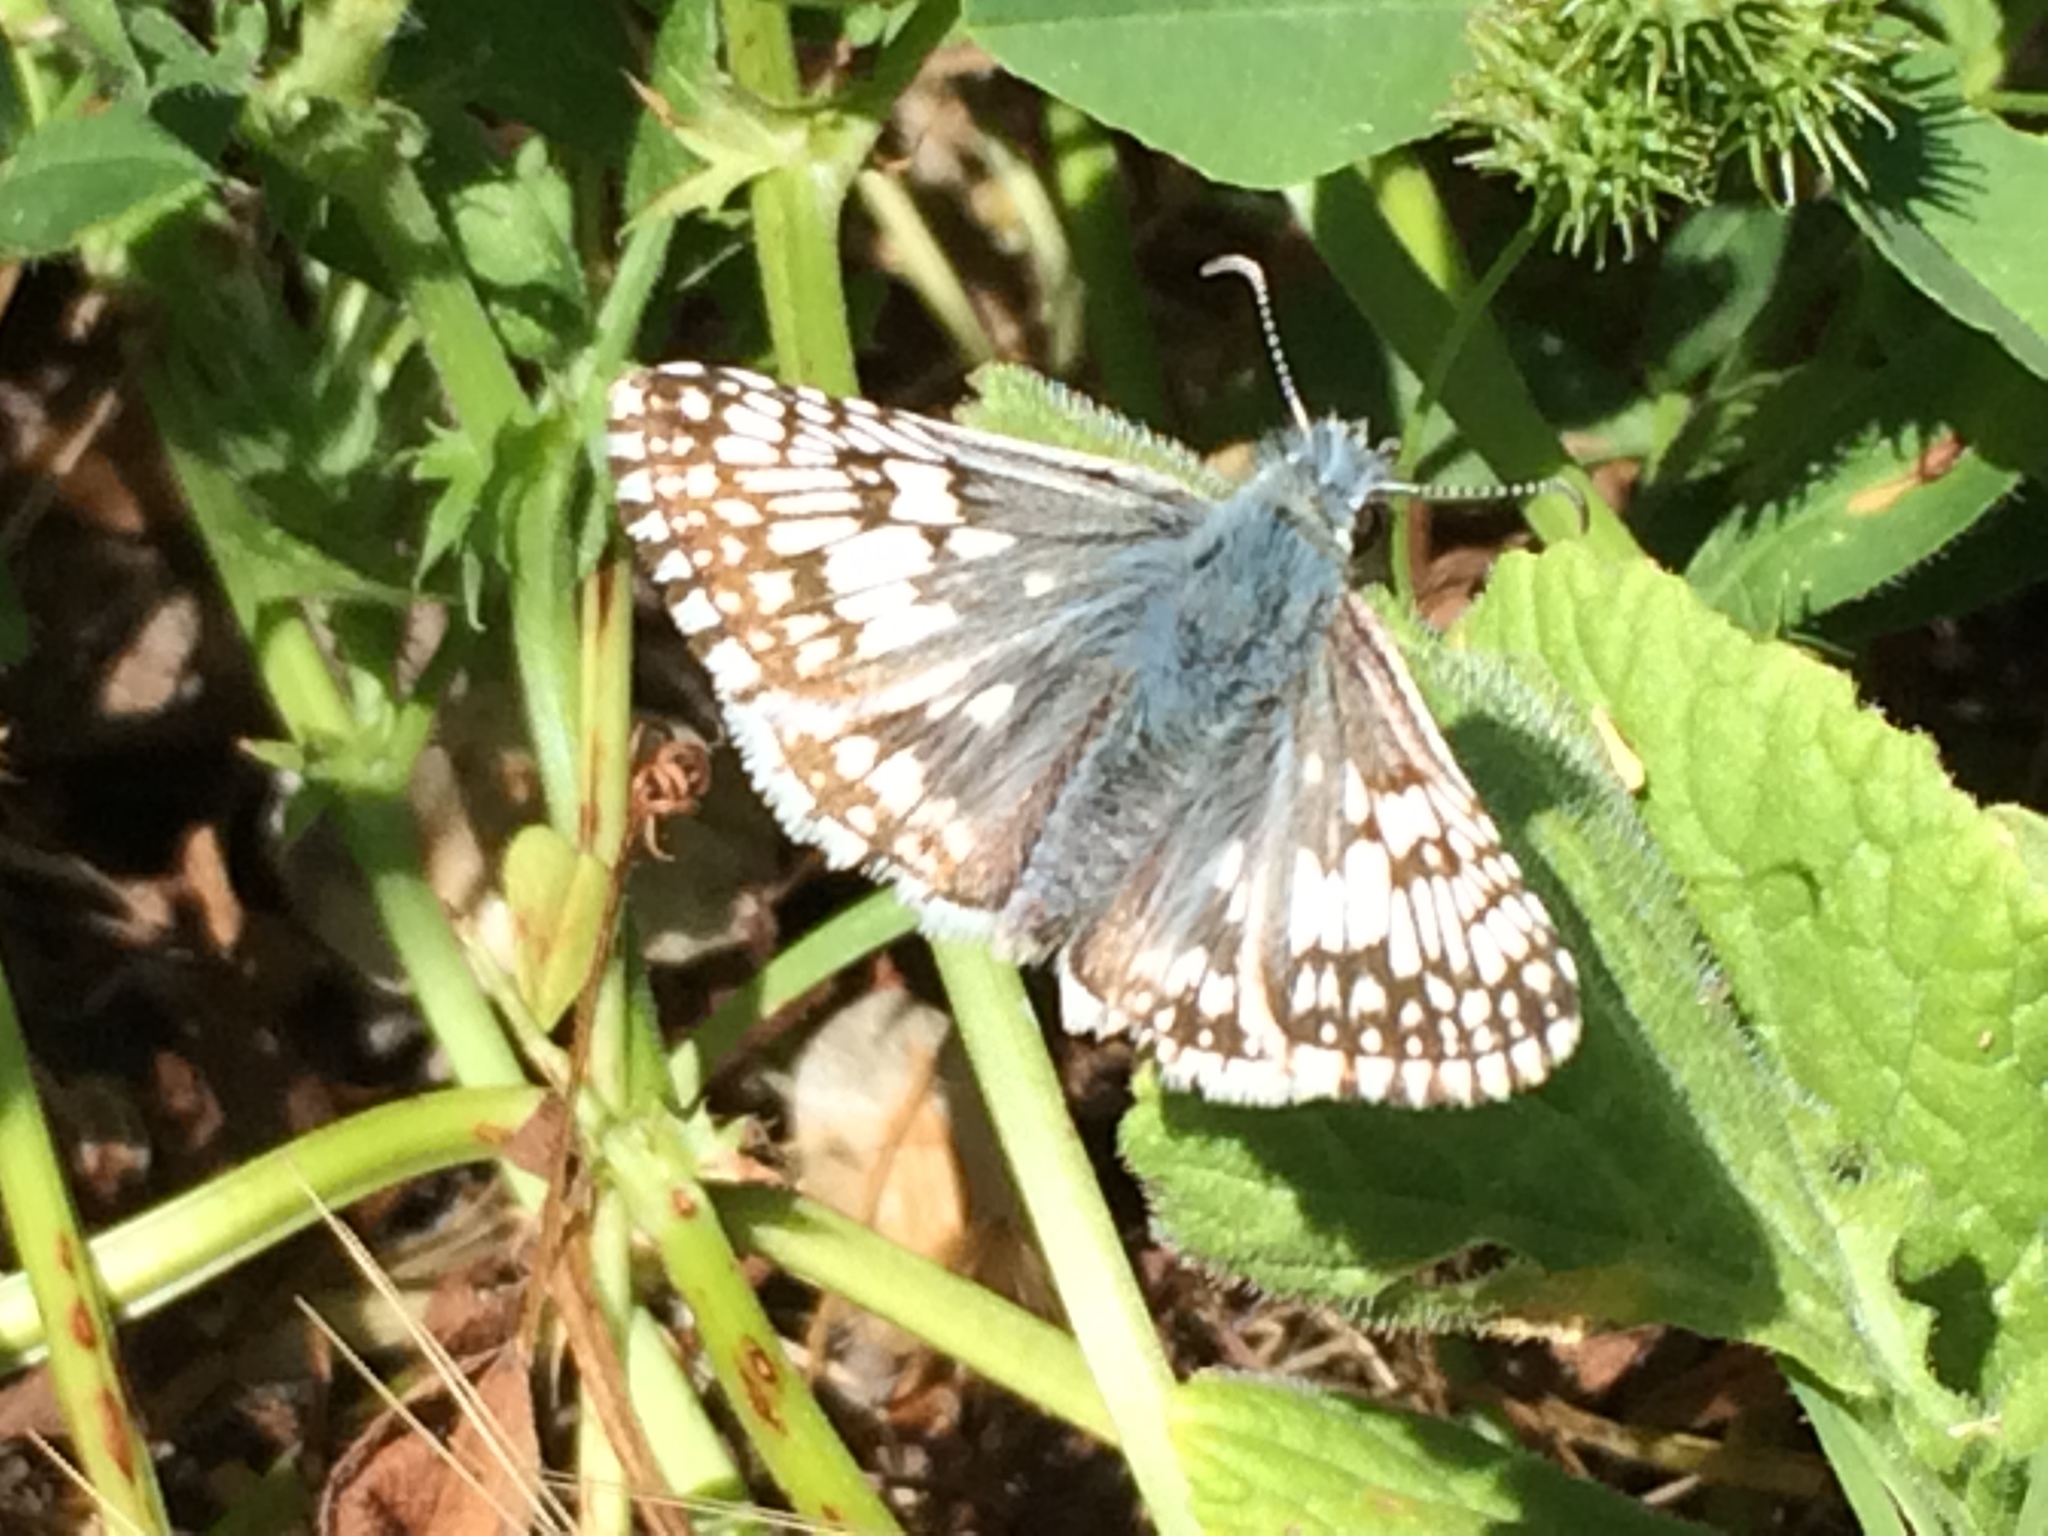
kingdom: Animalia
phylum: Arthropoda
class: Insecta
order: Lepidoptera
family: Hesperiidae
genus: Burnsius
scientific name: Burnsius communis
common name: Common checkered-skipper
